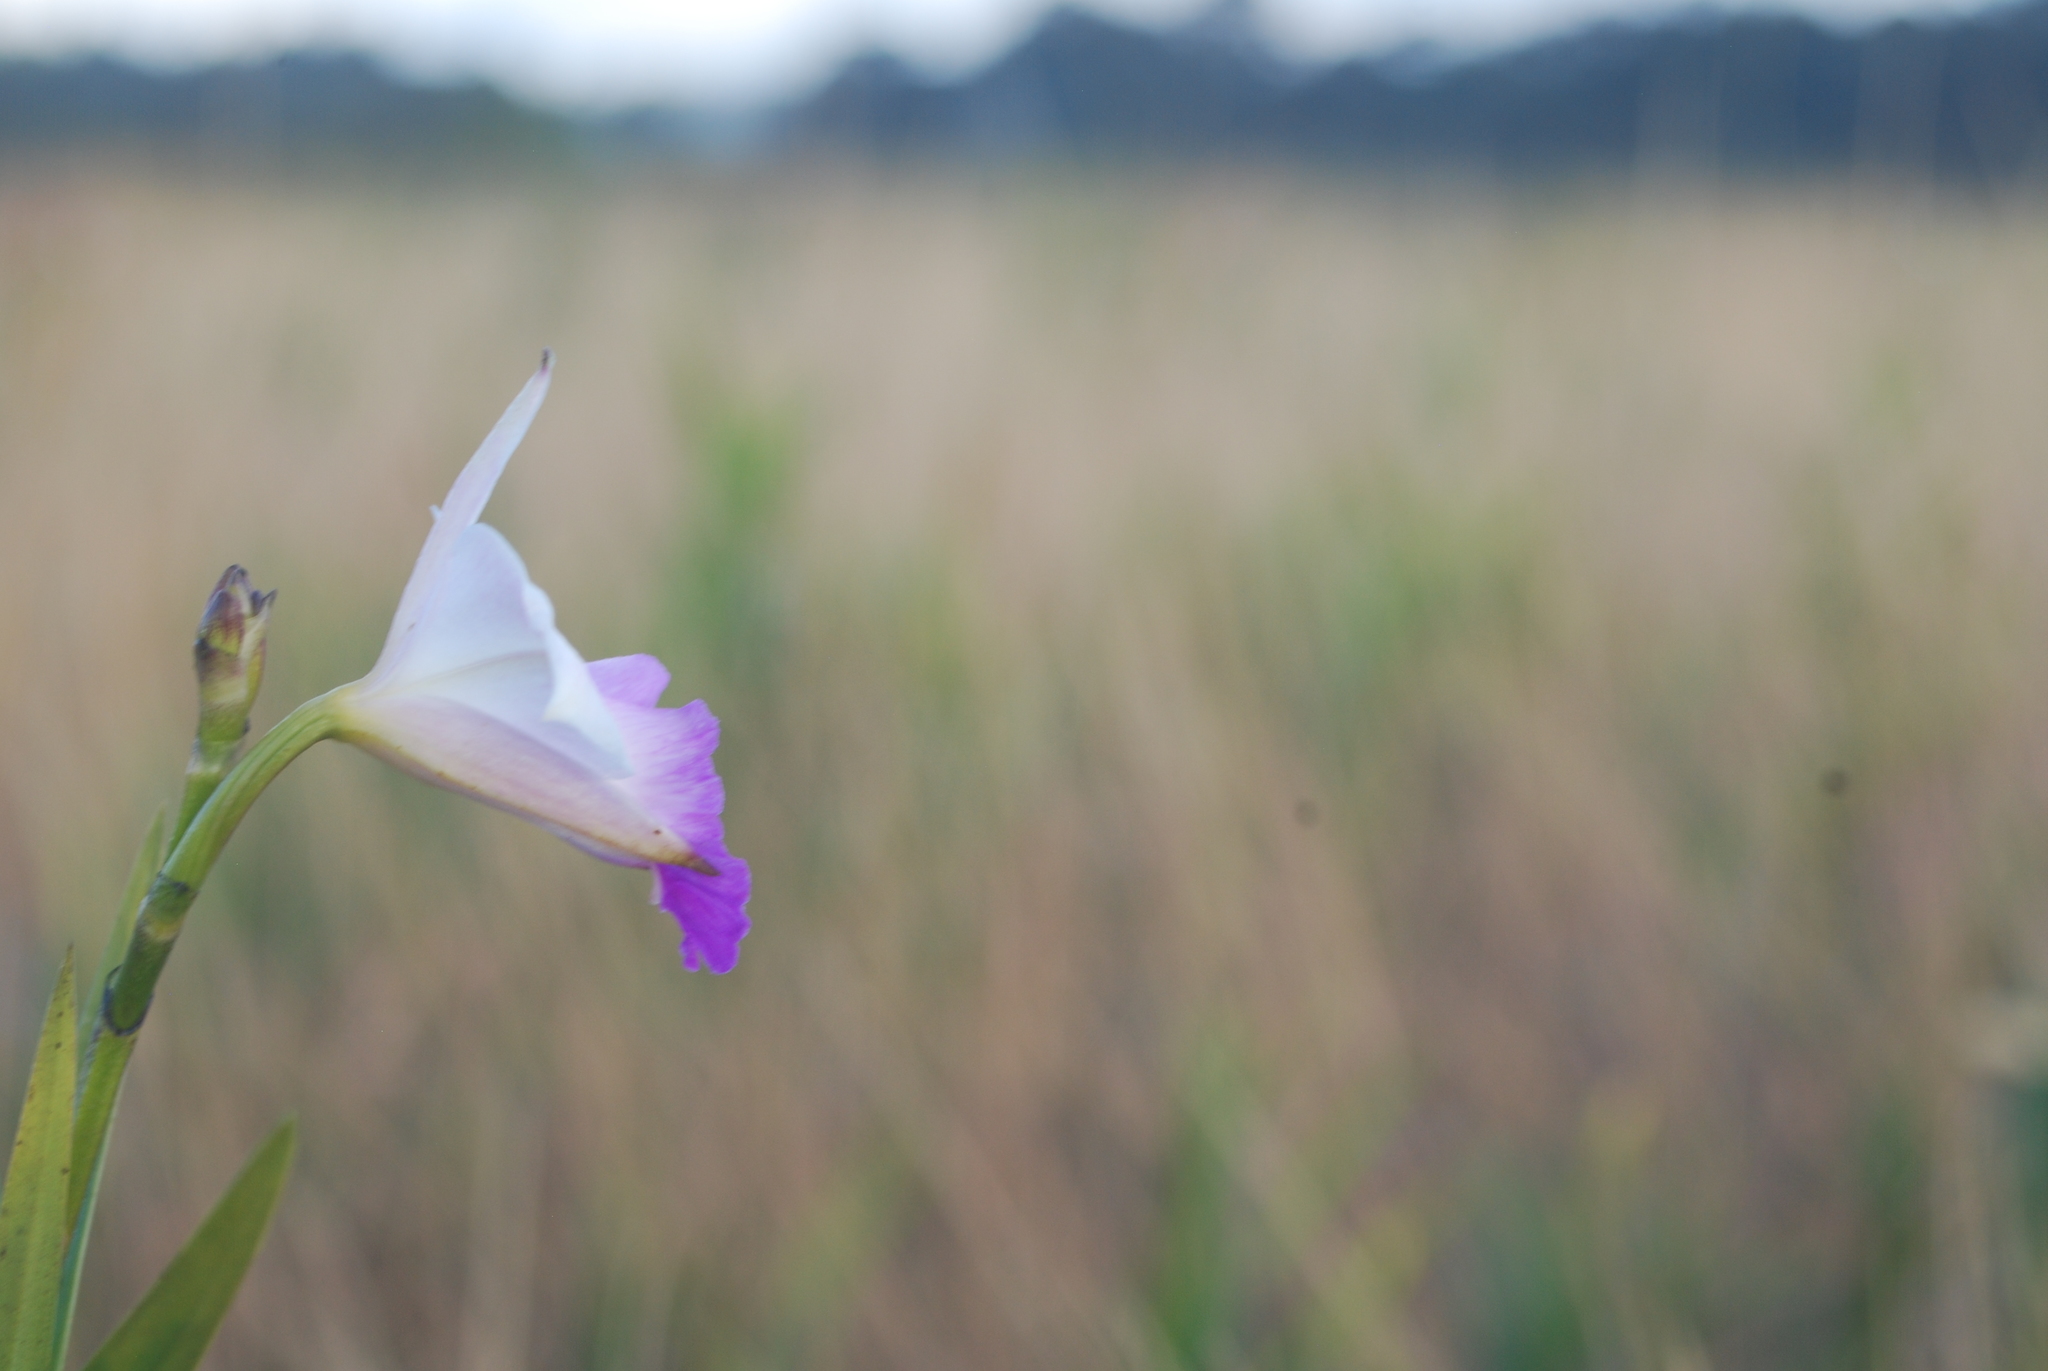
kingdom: Plantae
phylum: Tracheophyta
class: Liliopsida
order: Asparagales
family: Orchidaceae
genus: Arundina
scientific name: Arundina graminifolia
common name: Bamboo orchid
